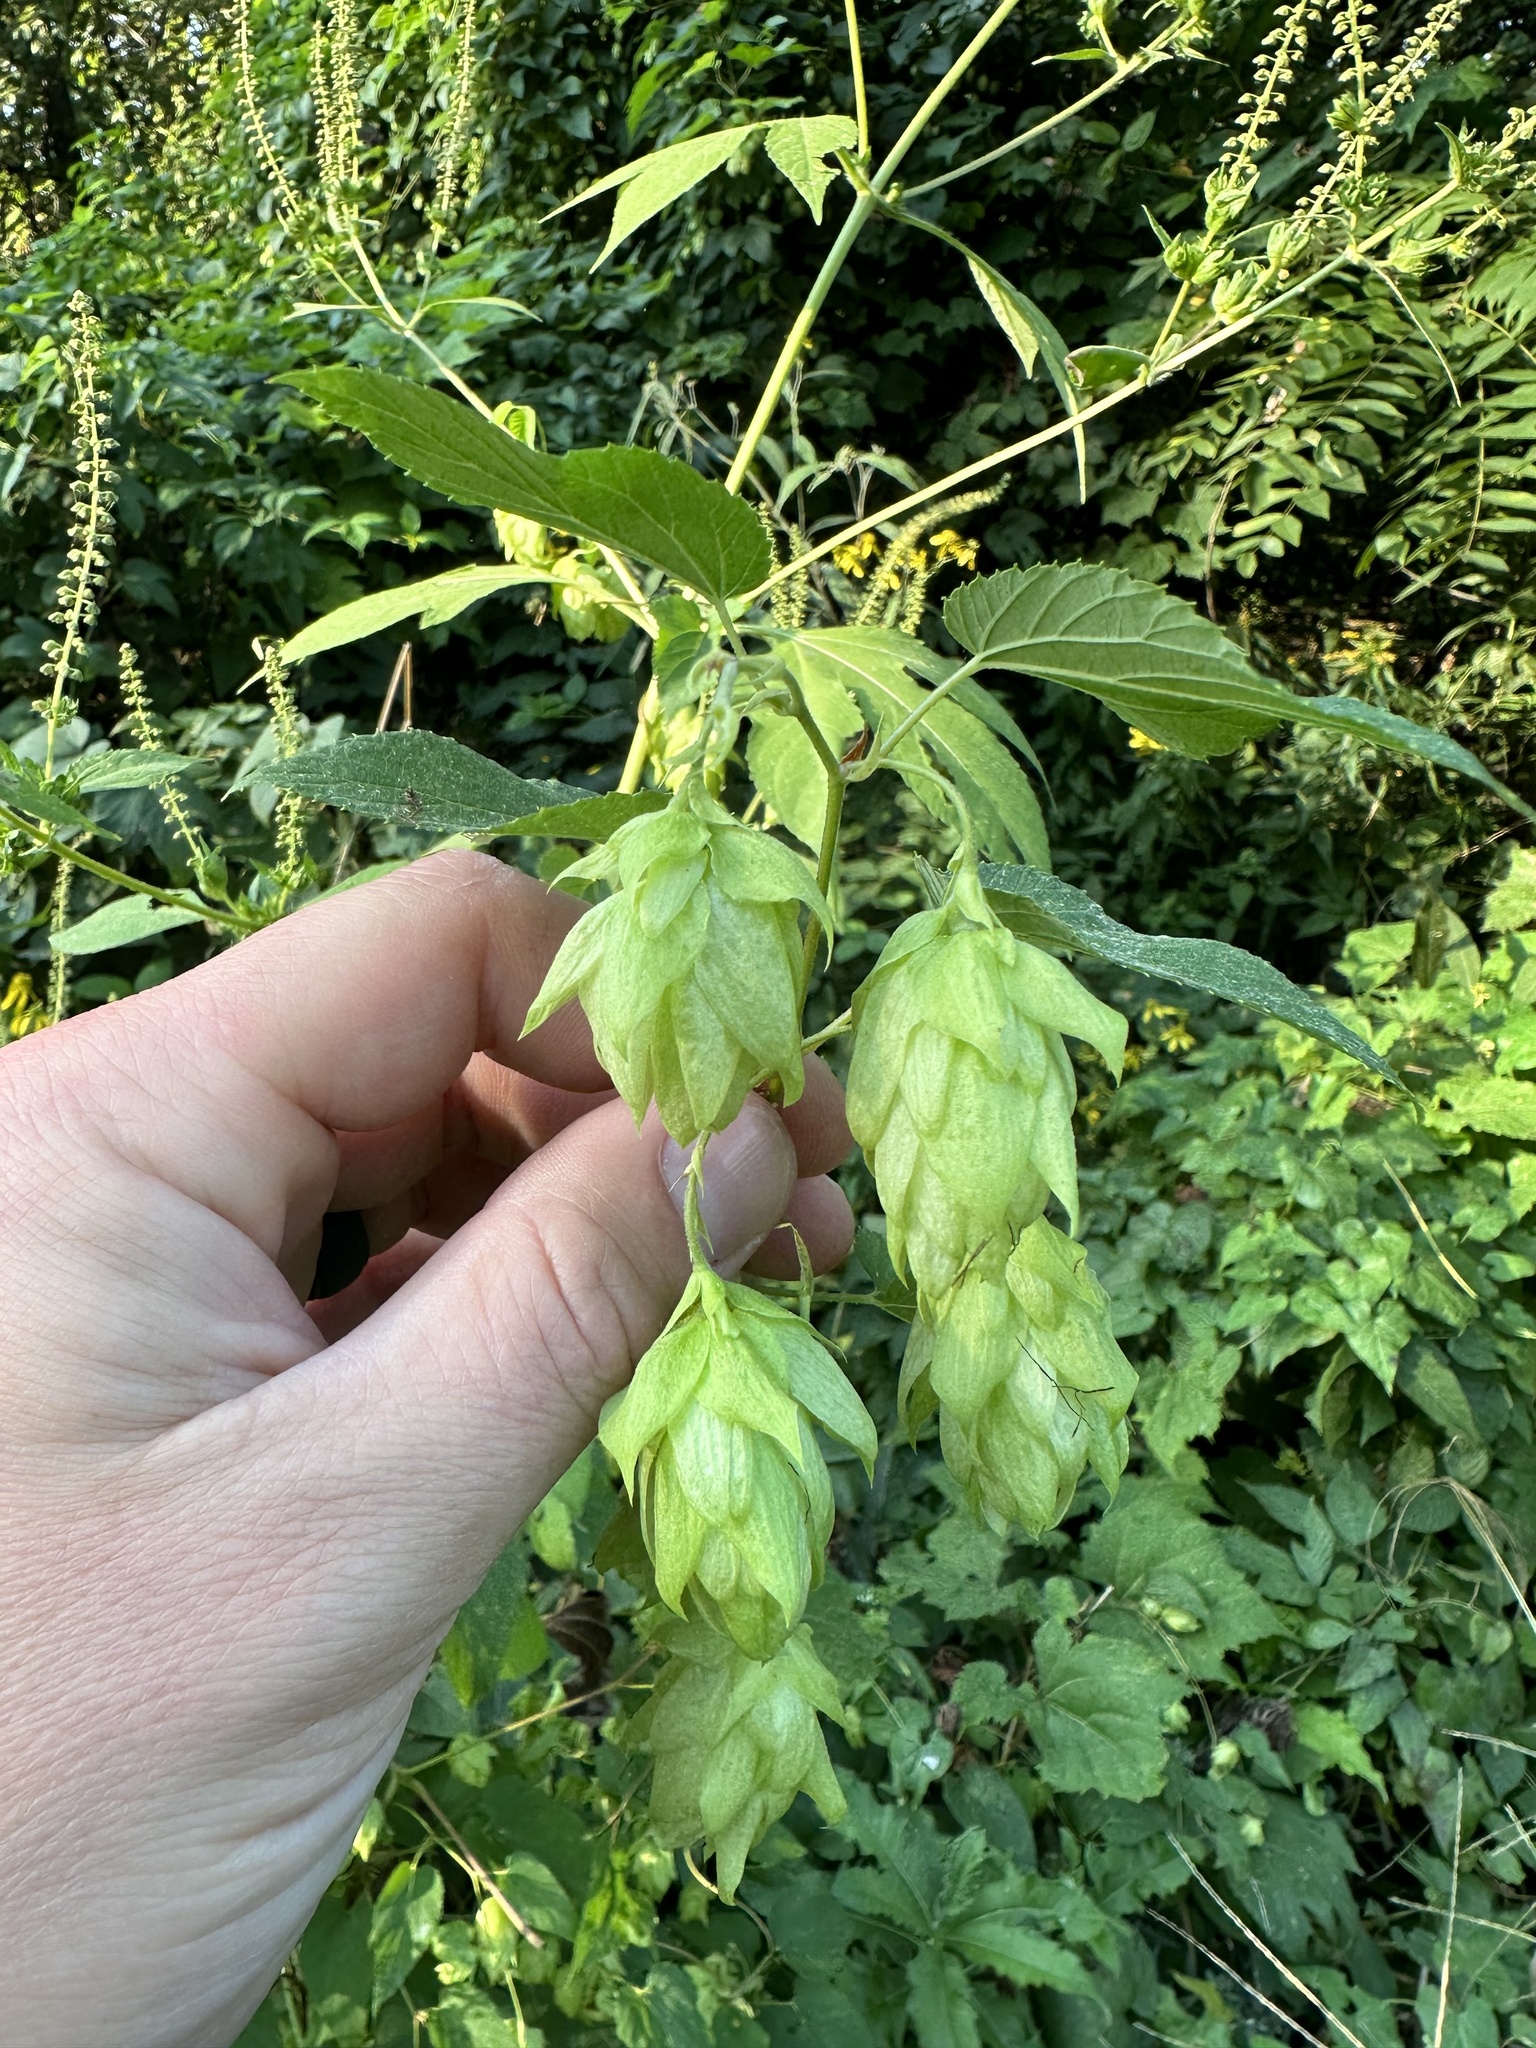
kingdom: Plantae
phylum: Tracheophyta
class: Magnoliopsida
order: Rosales
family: Cannabaceae
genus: Humulus
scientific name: Humulus lupulus
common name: Hop
